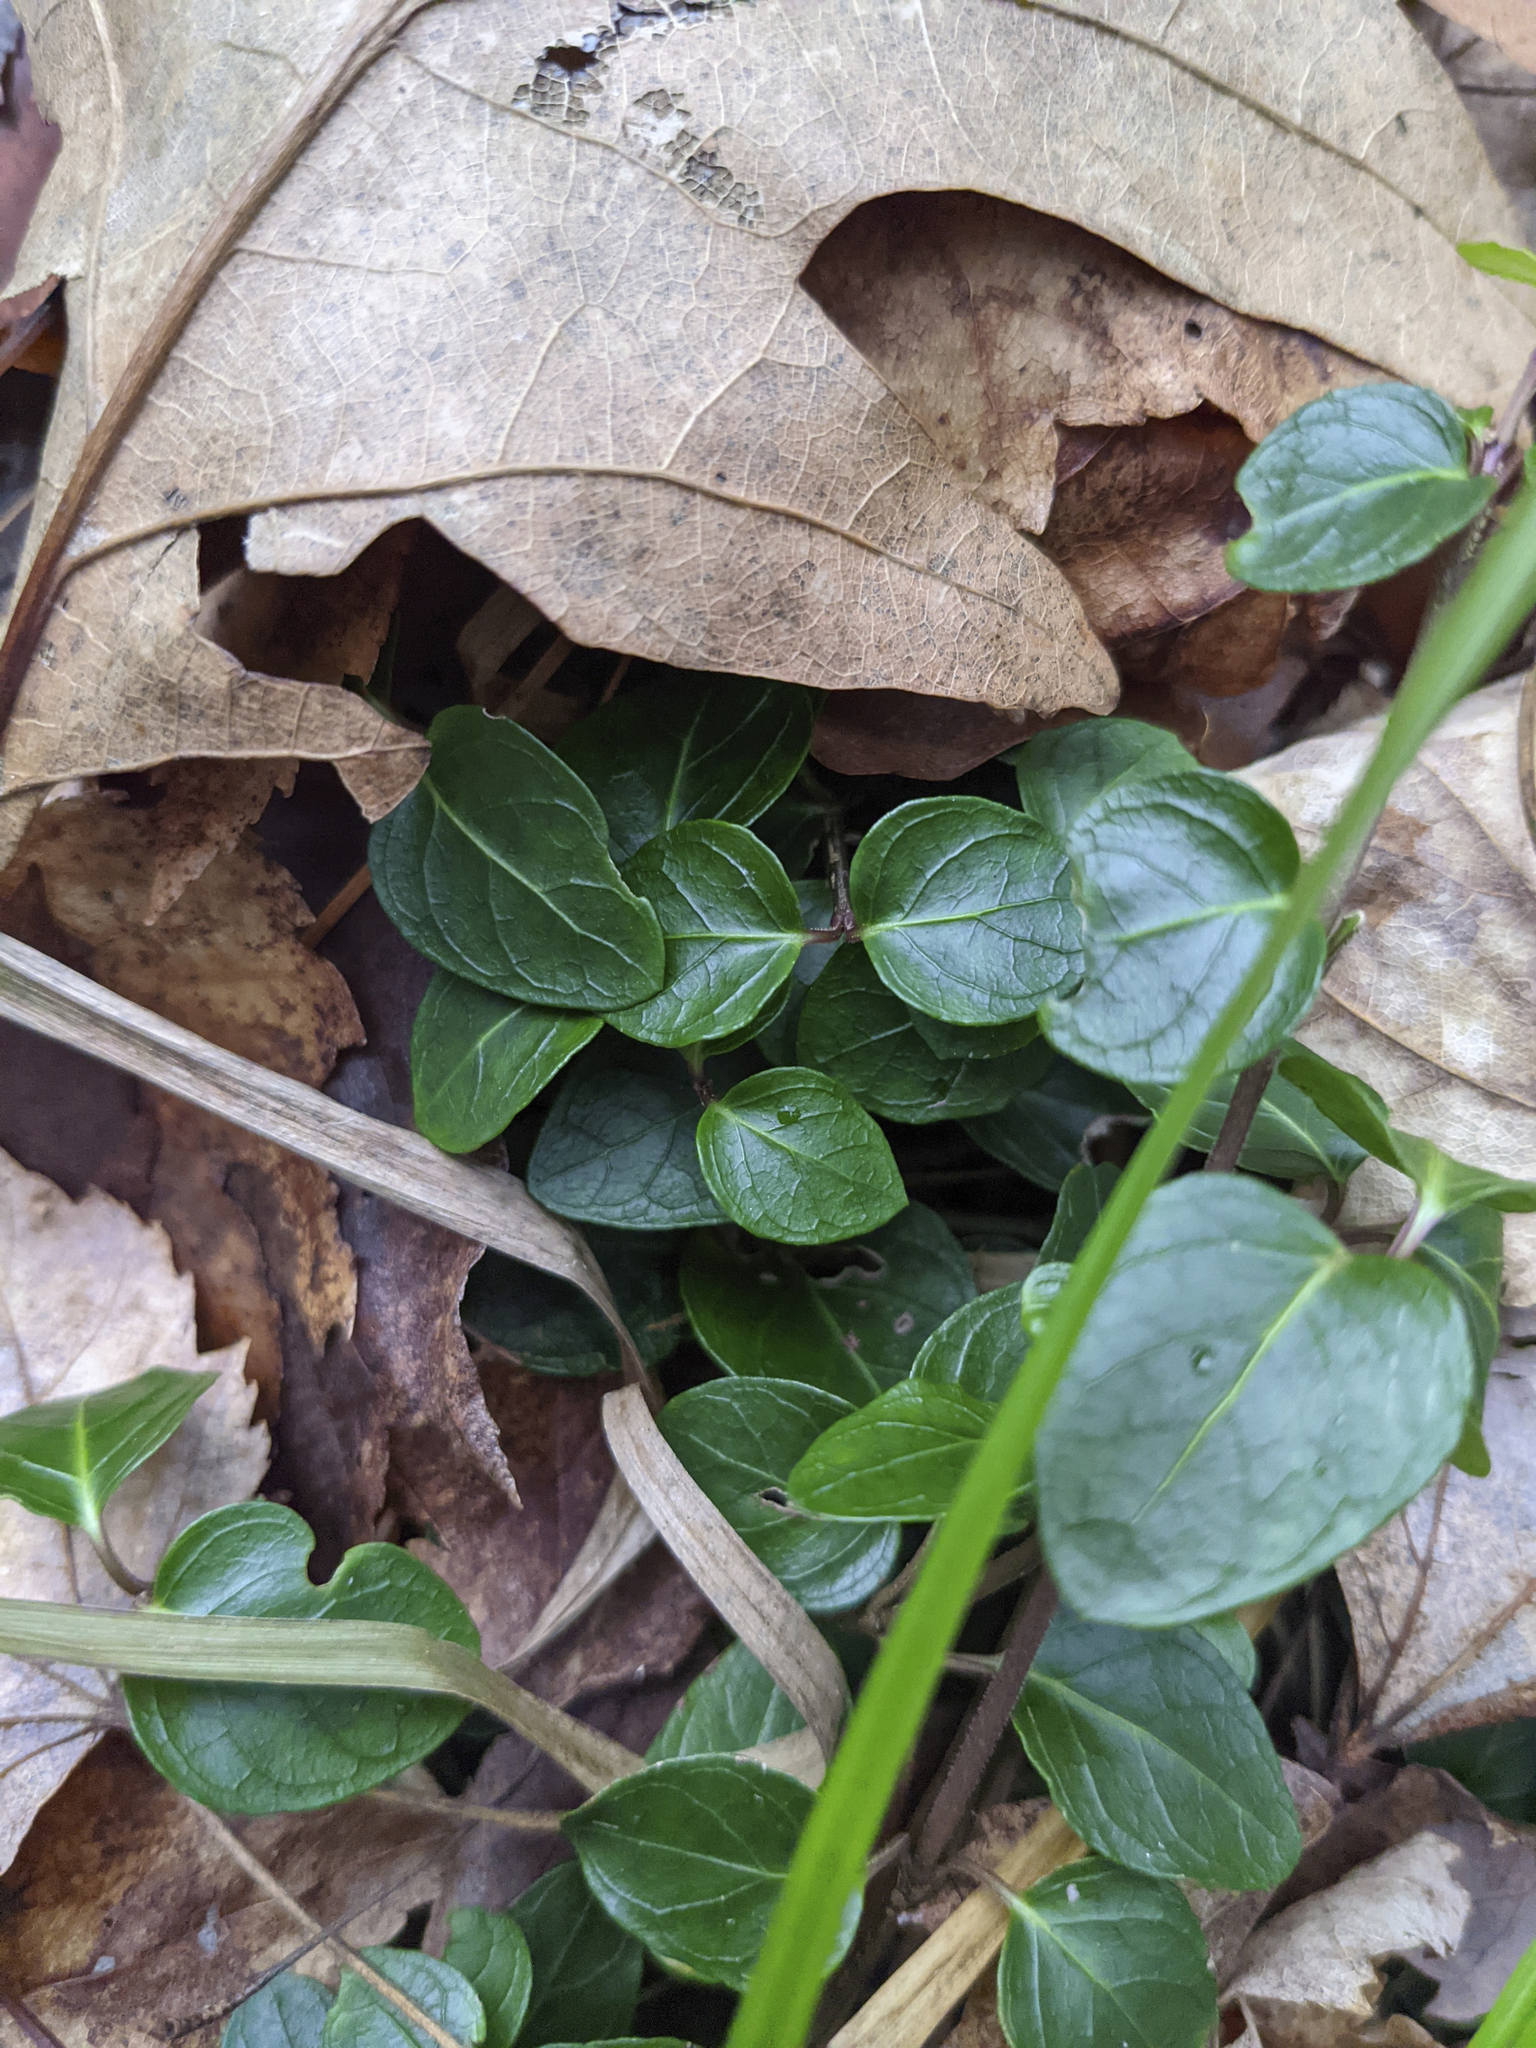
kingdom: Plantae
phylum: Tracheophyta
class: Magnoliopsida
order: Gentianales
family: Rubiaceae
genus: Mitchella
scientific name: Mitchella repens
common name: Partridge-berry
